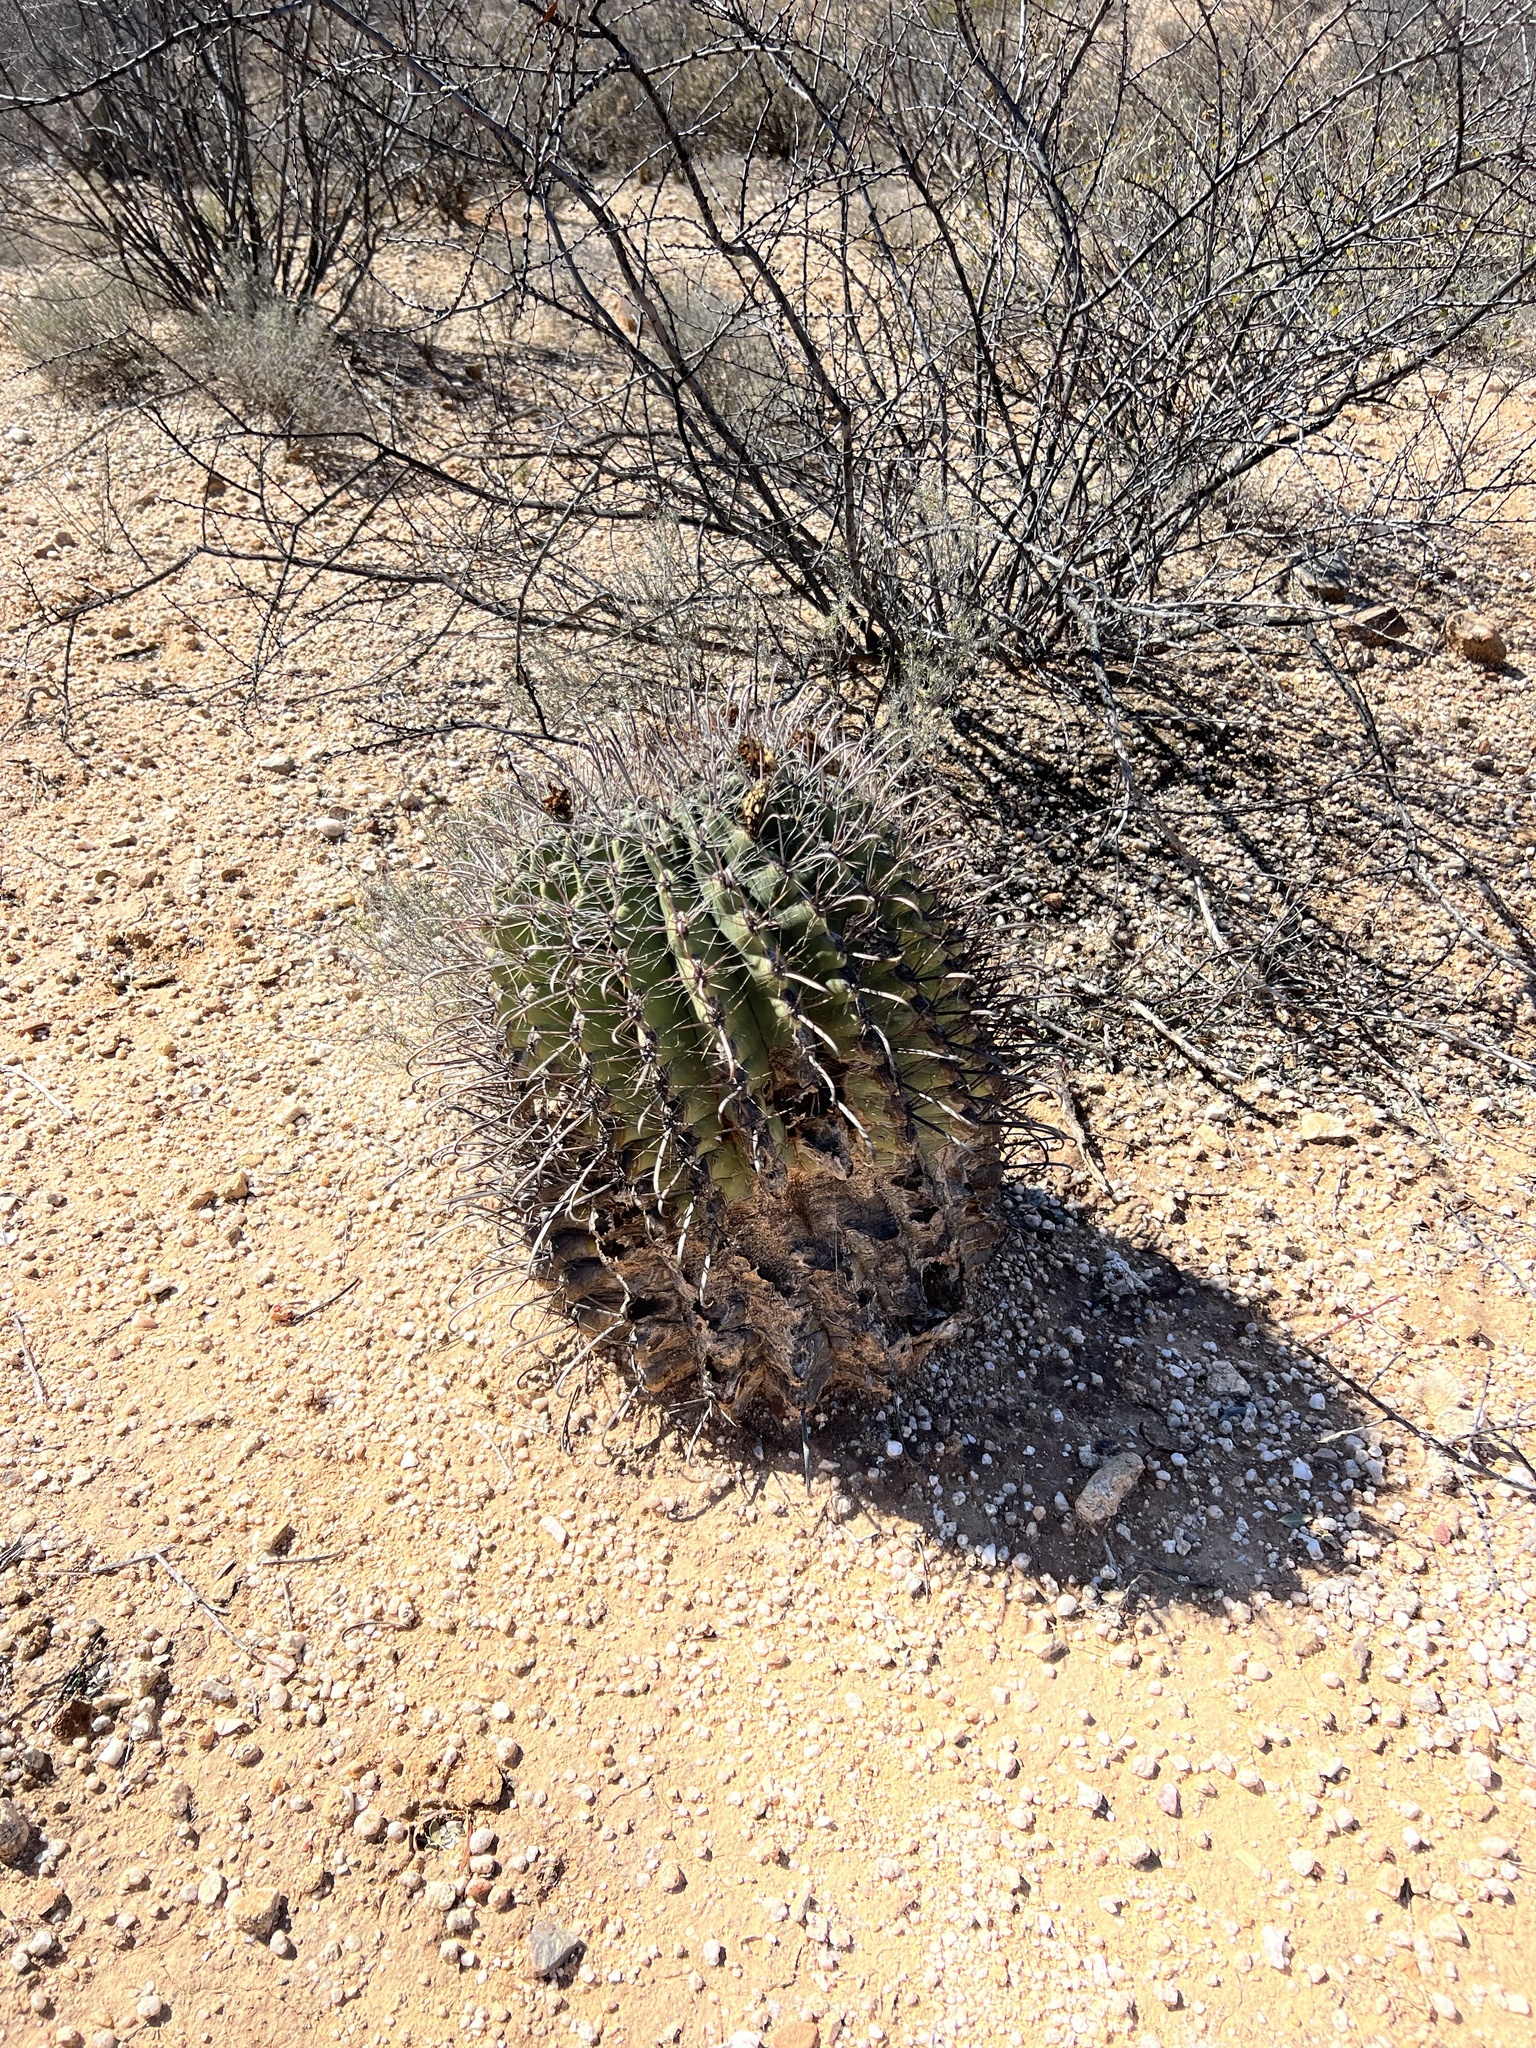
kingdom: Plantae
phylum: Tracheophyta
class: Magnoliopsida
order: Caryophyllales
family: Cactaceae
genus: Ferocactus
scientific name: Ferocactus wislizeni
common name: Candy barrel cactus
